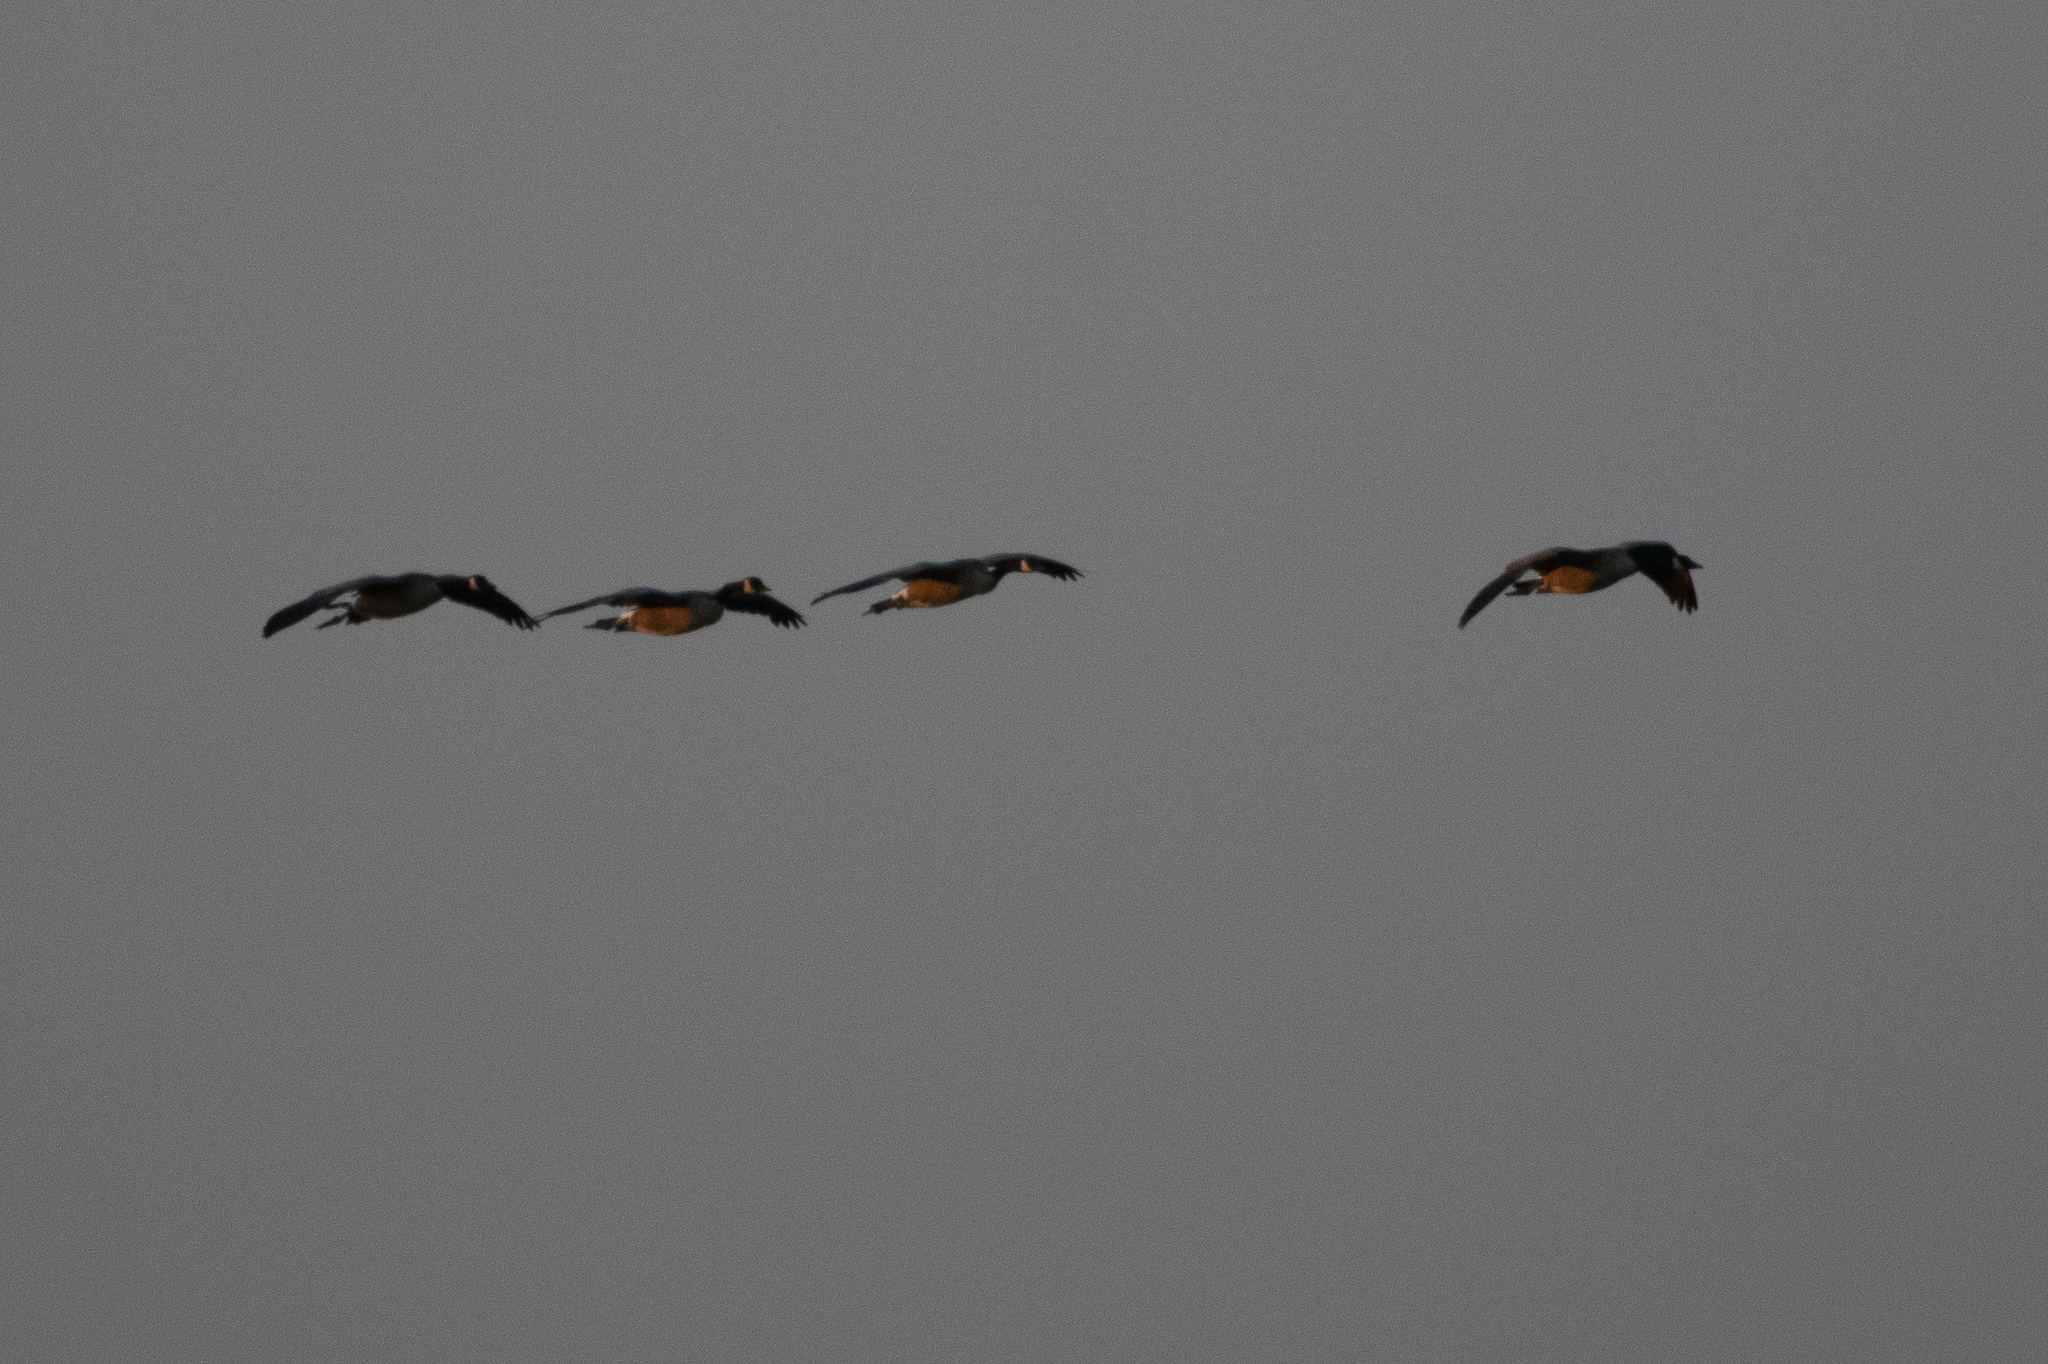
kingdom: Animalia
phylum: Chordata
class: Aves
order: Anseriformes
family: Anatidae
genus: Branta
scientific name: Branta canadensis
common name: Canada goose
